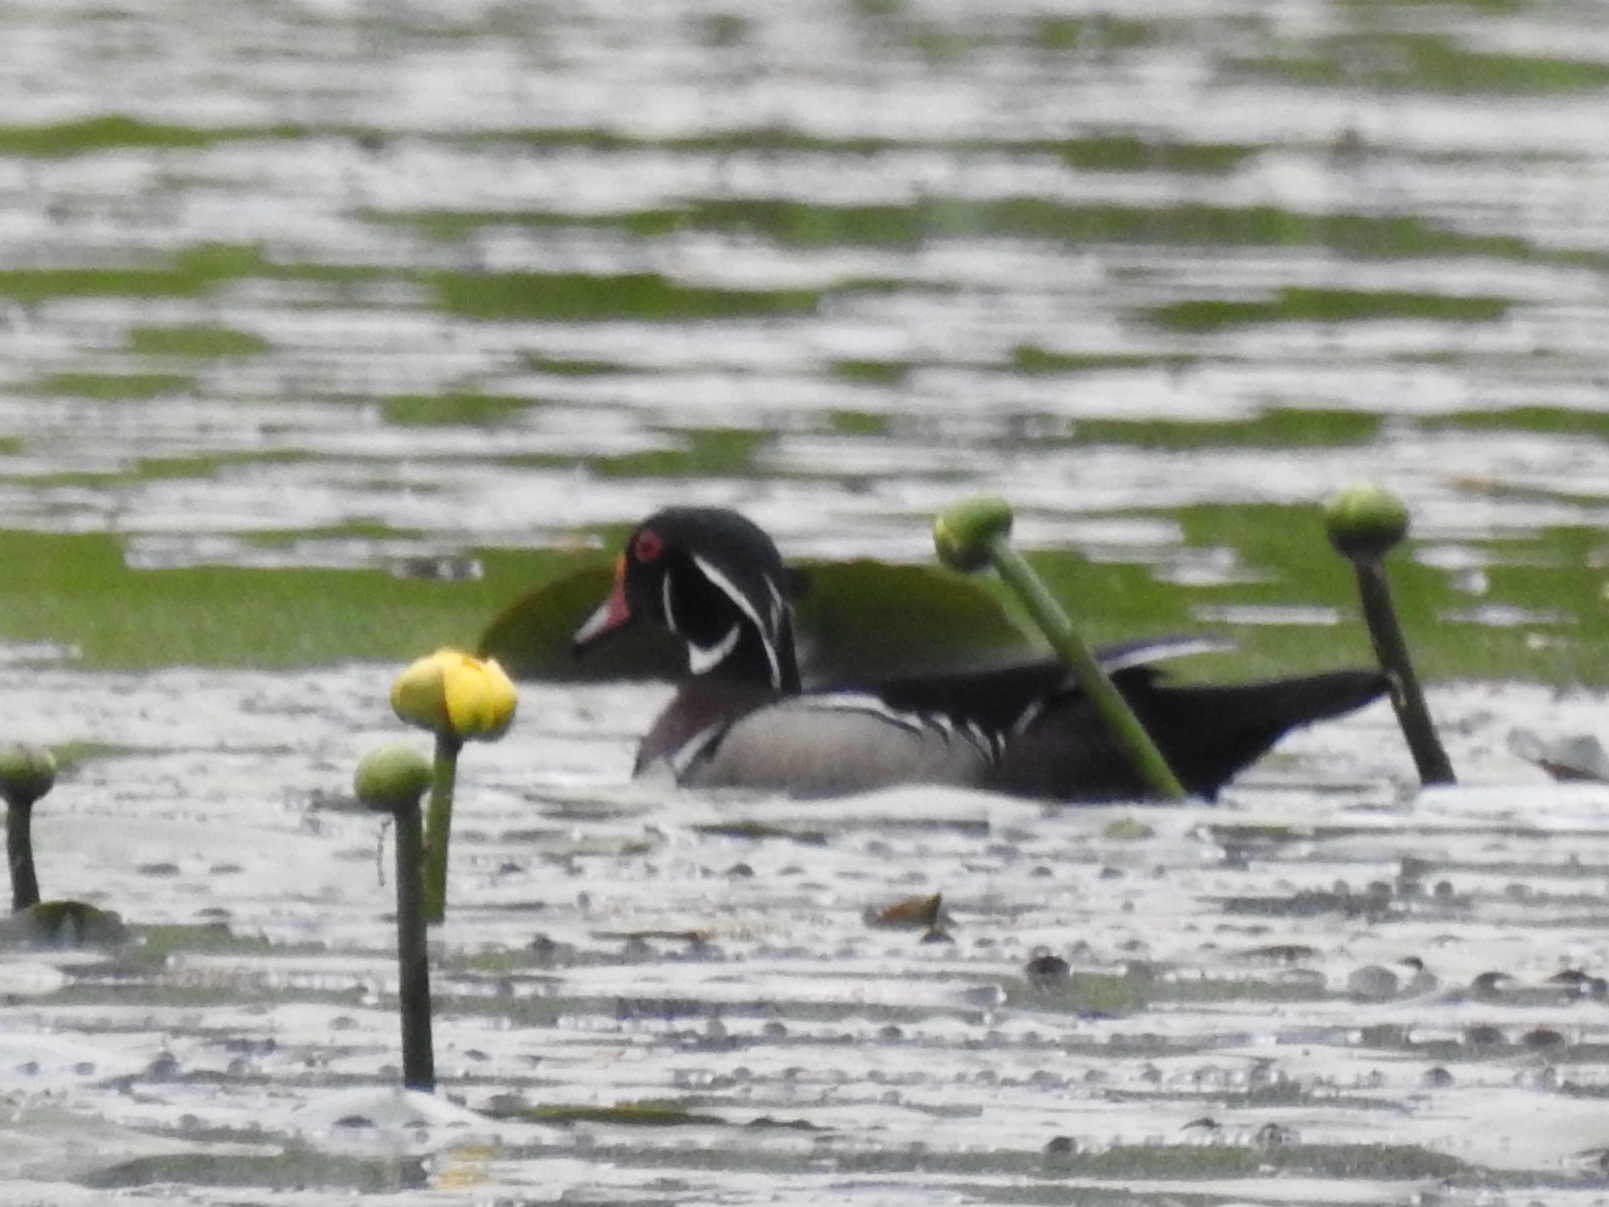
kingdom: Animalia
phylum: Chordata
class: Aves
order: Anseriformes
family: Anatidae
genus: Aix
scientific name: Aix sponsa
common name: Wood duck
